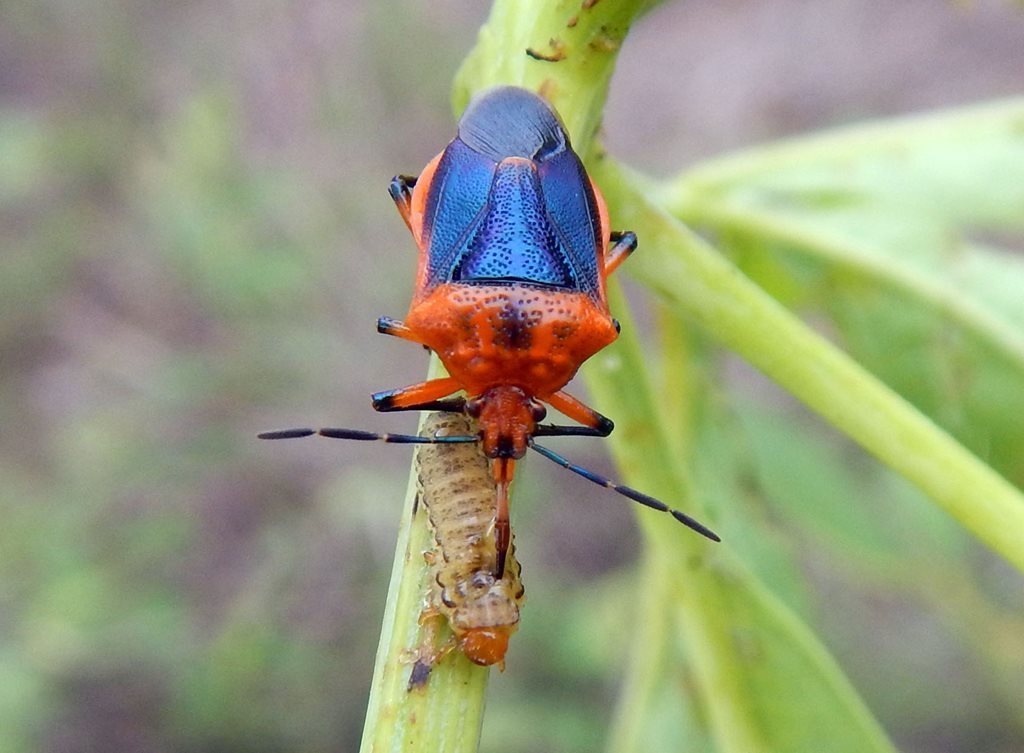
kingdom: Animalia
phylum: Arthropoda
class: Insecta
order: Hemiptera
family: Pentatomidae
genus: Jalloides
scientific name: Jalloides
